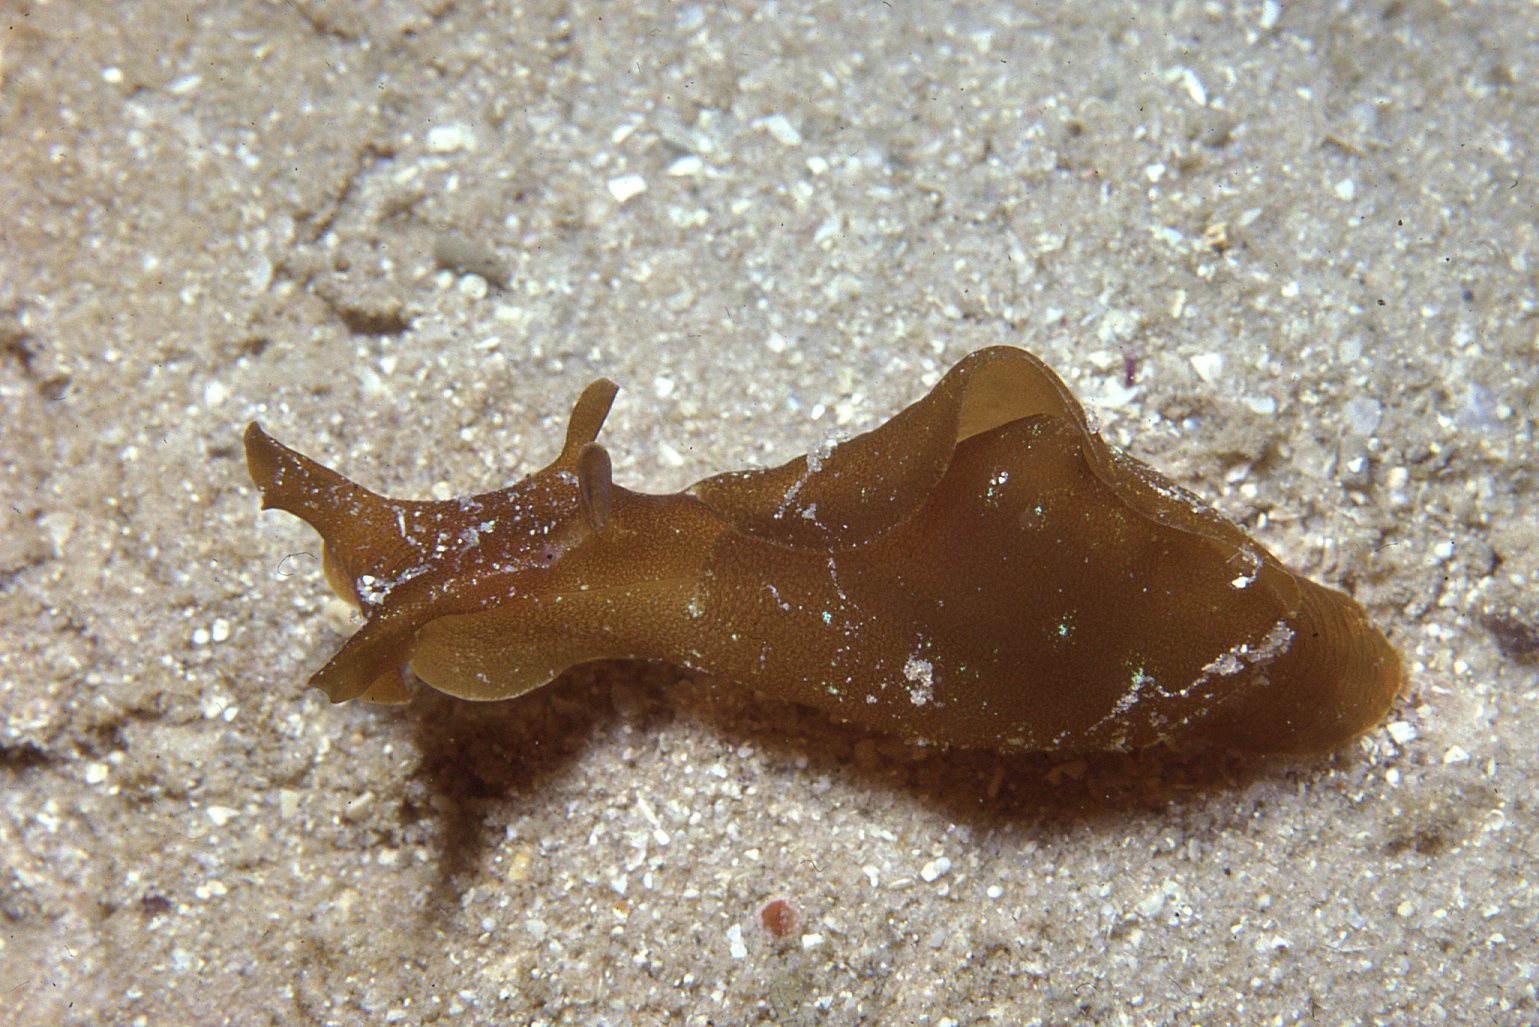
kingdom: Animalia
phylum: Mollusca
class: Gastropoda
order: Aplysiida
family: Aplysiidae
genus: Aplysia
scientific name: Aplysia juliana
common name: Walking sea hare
